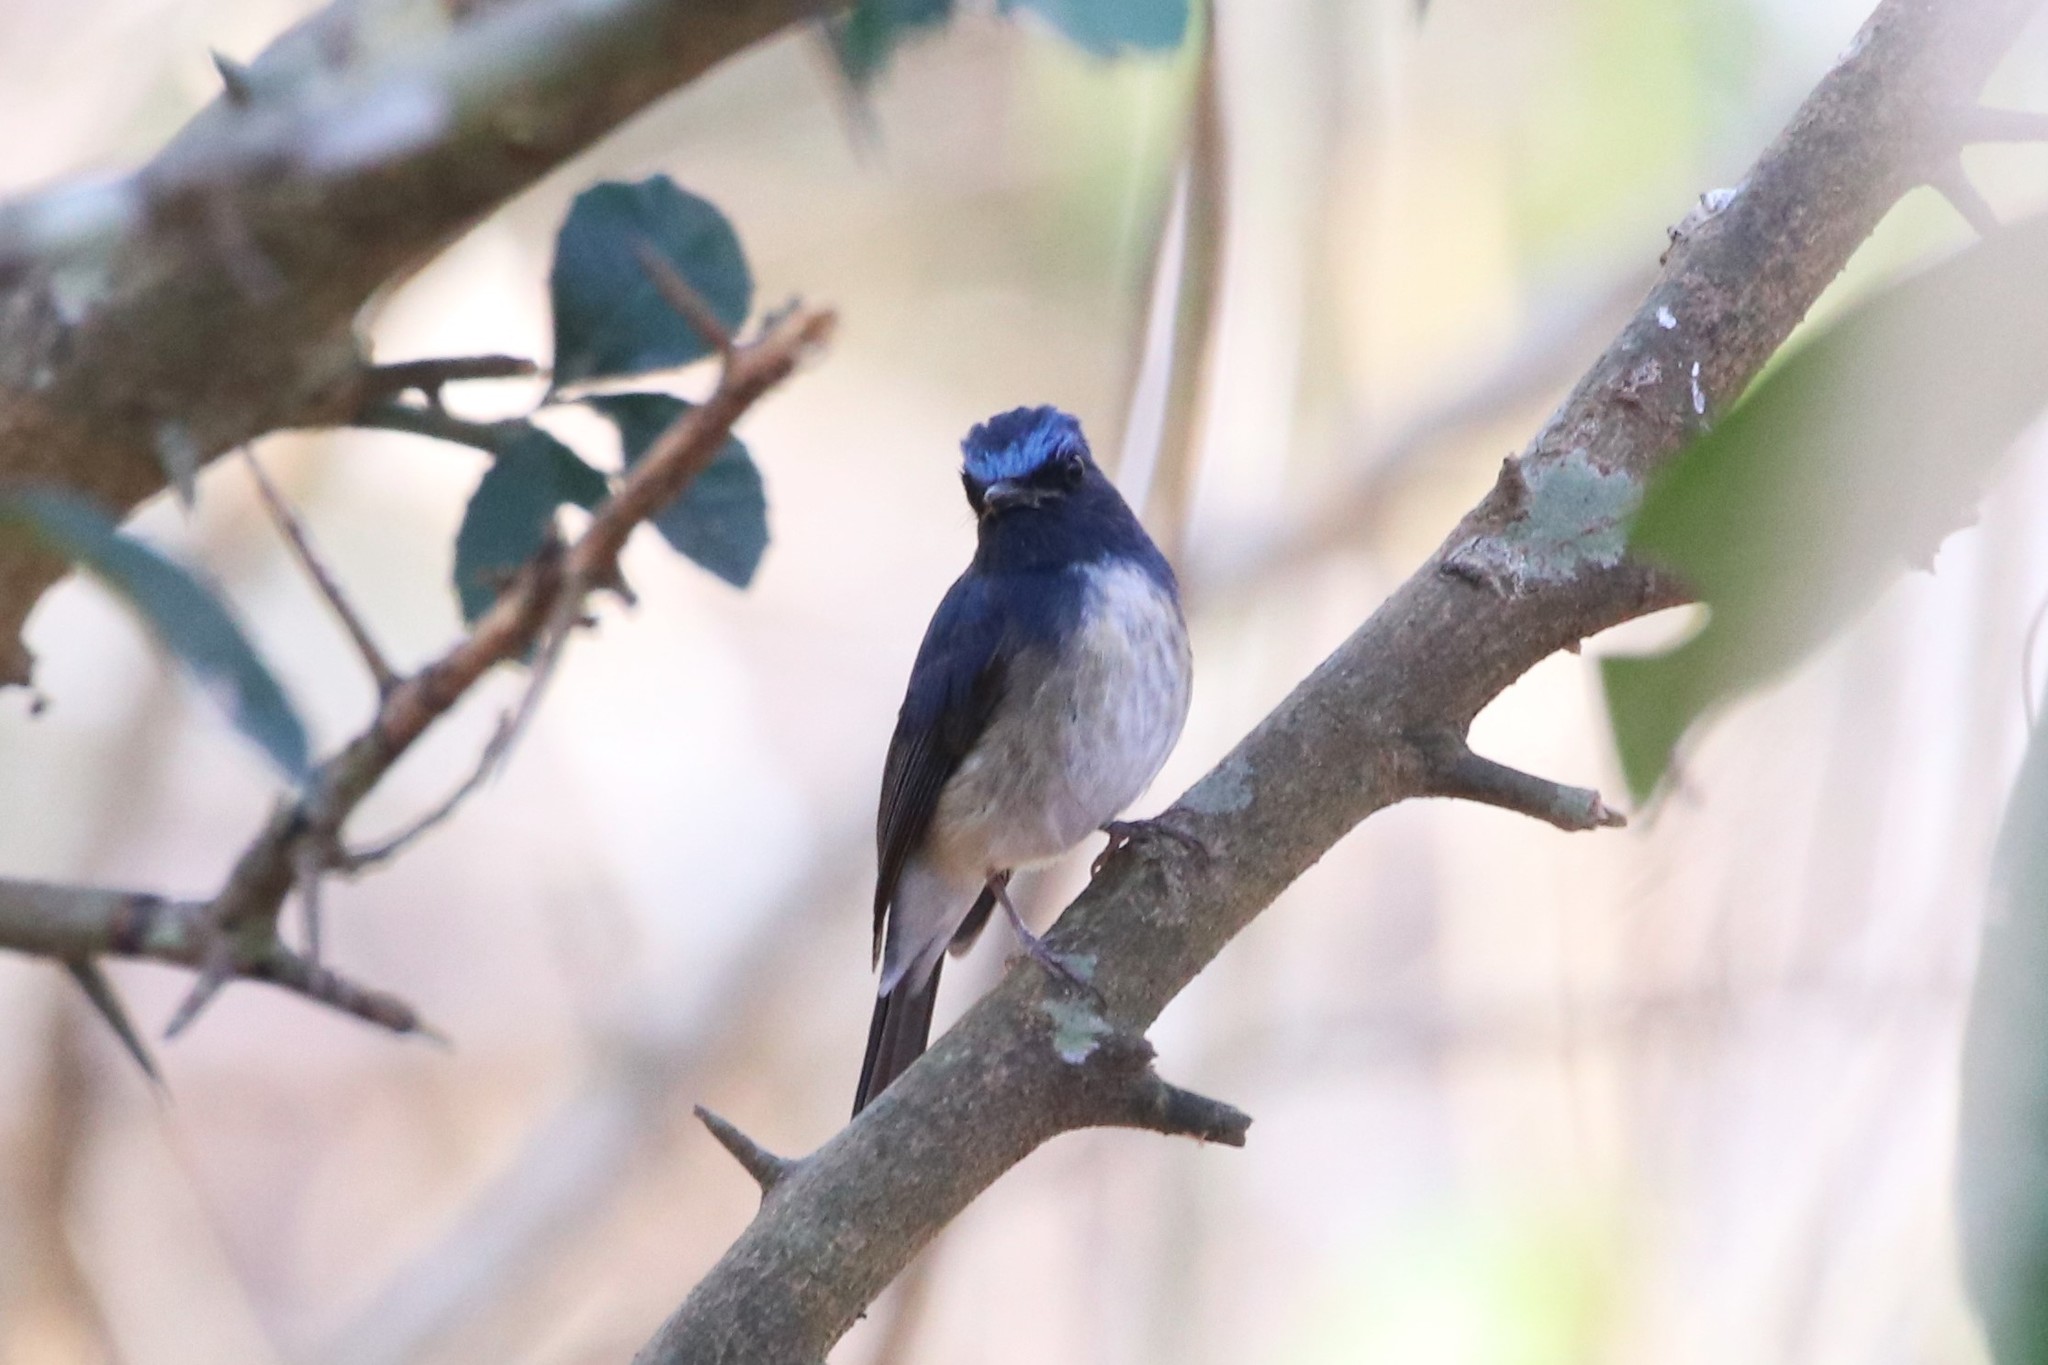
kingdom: Animalia
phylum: Chordata
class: Aves
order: Passeriformes
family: Muscicapidae
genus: Cyornis
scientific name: Cyornis hainanus
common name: Hainan blue flycatcher
